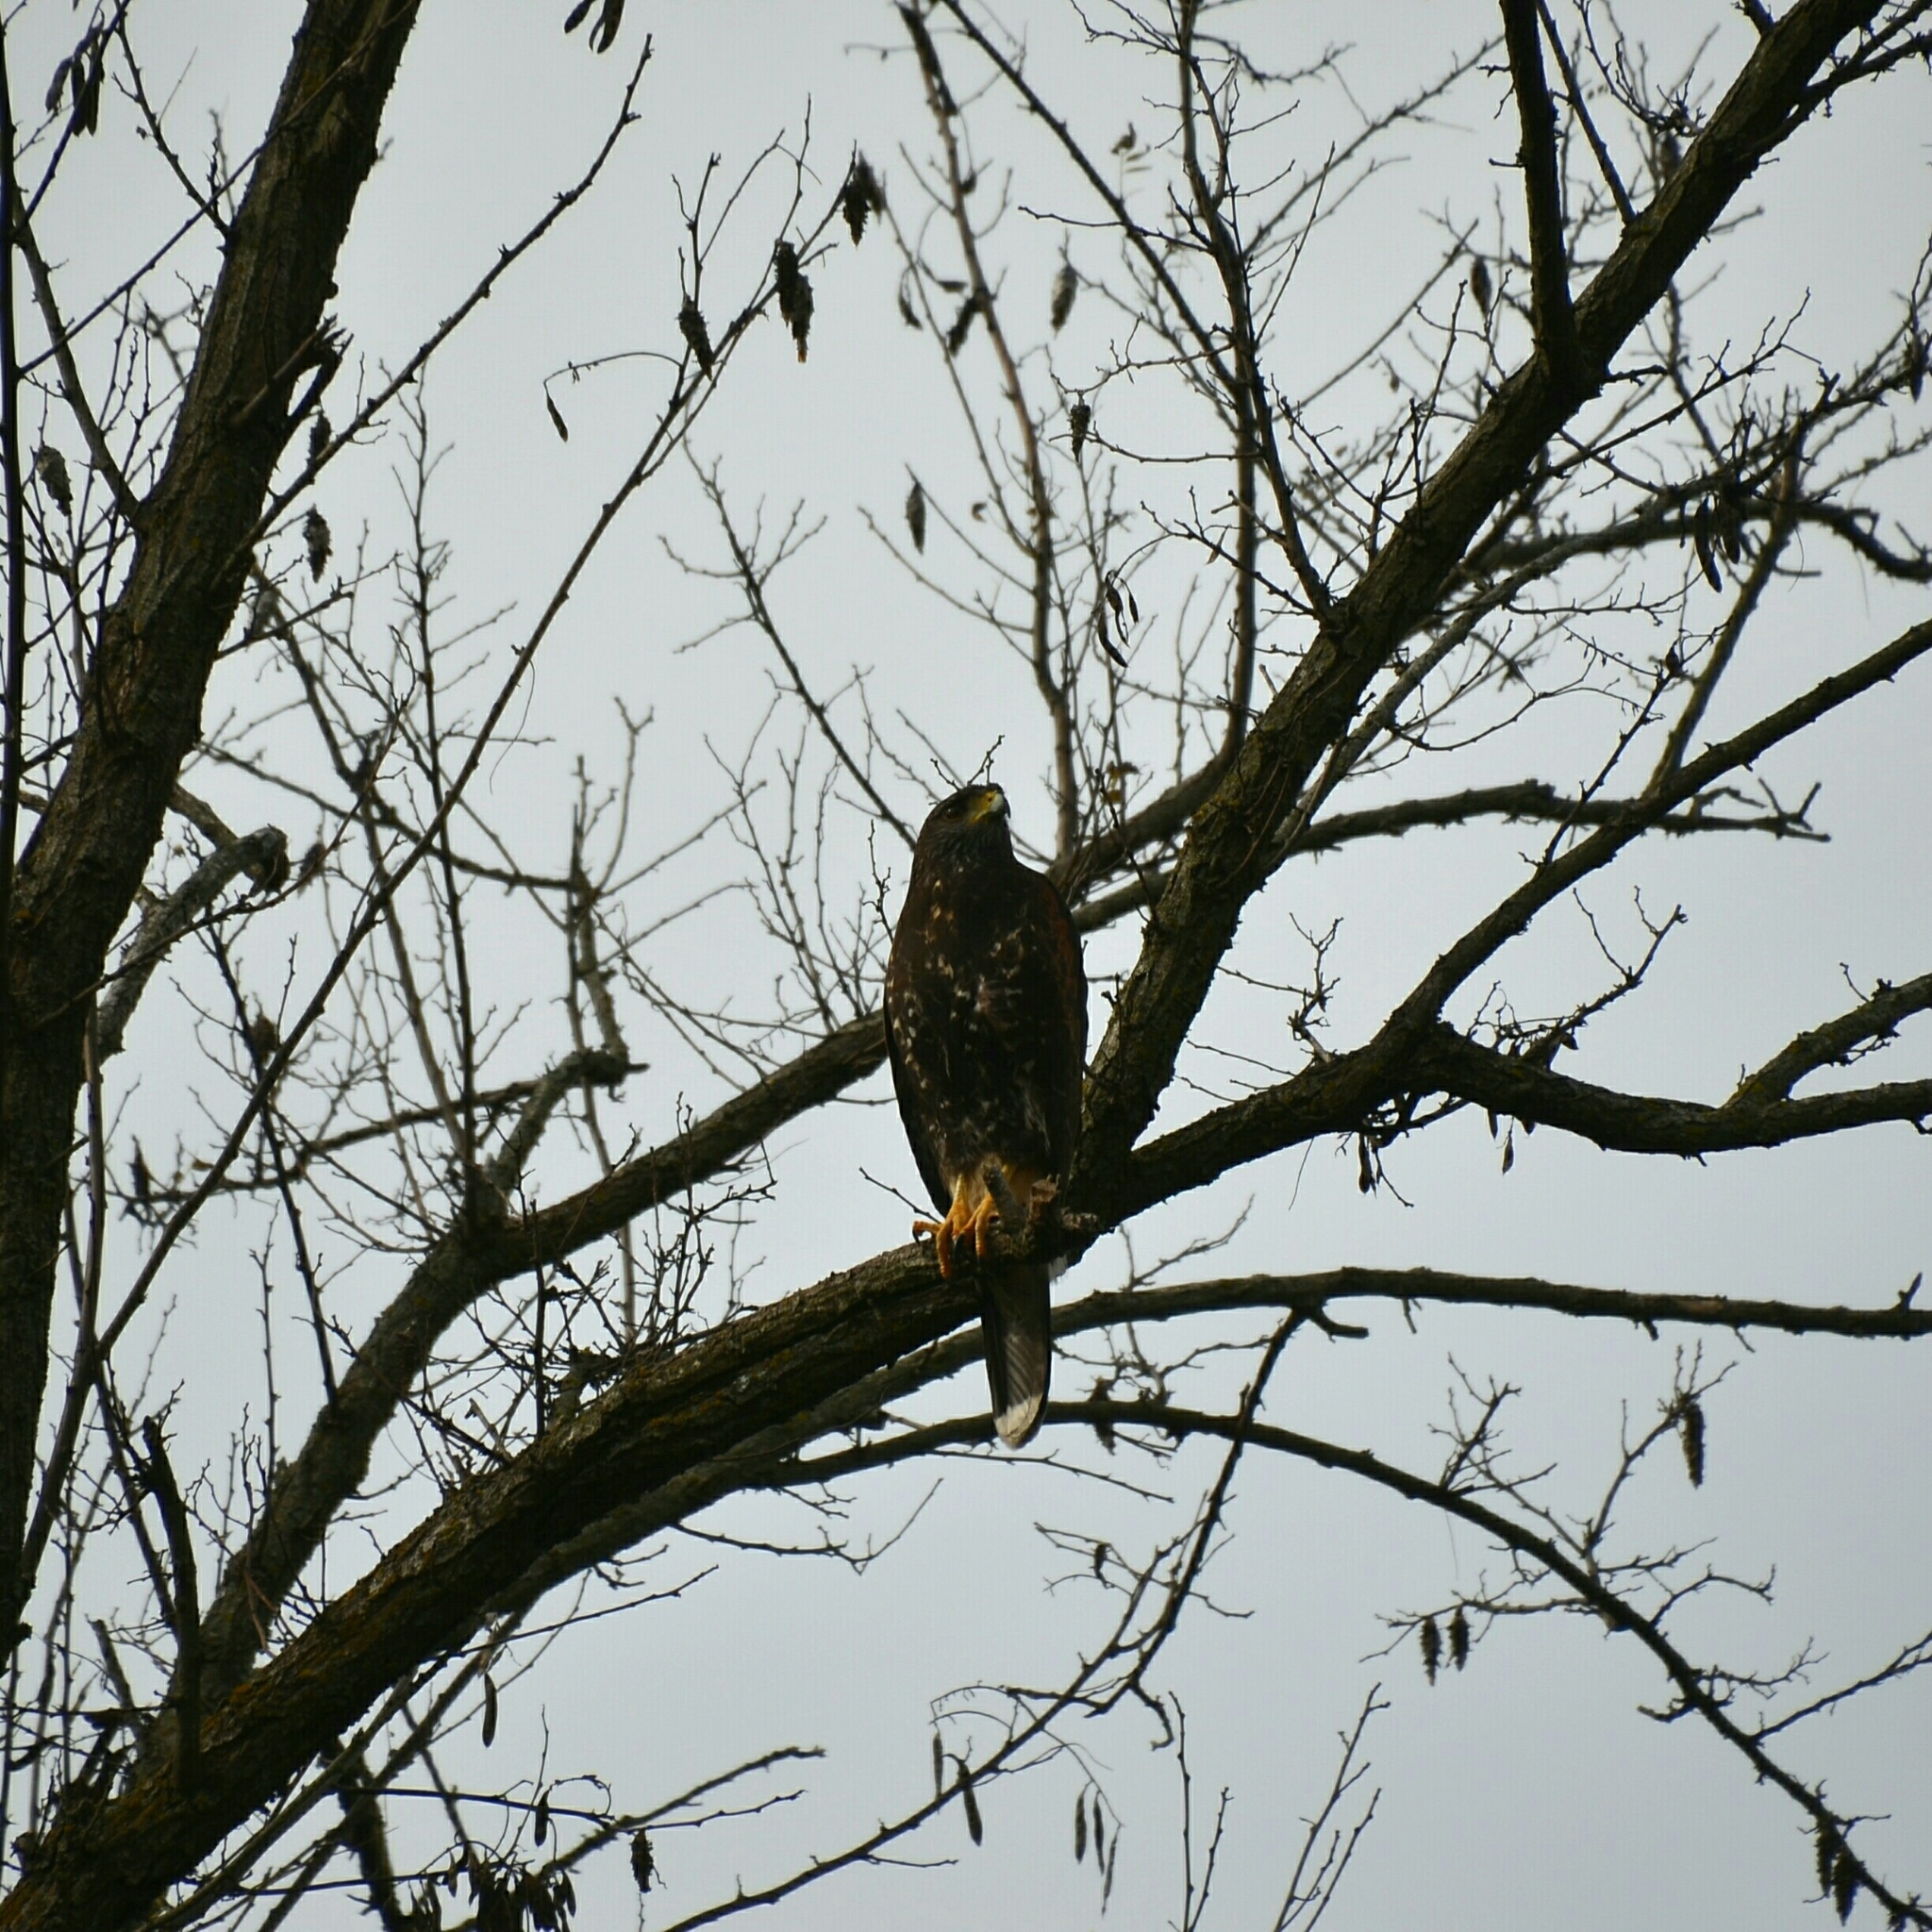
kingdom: Animalia
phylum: Chordata
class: Aves
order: Accipitriformes
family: Accipitridae
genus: Parabuteo
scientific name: Parabuteo unicinctus
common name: Harris's hawk
